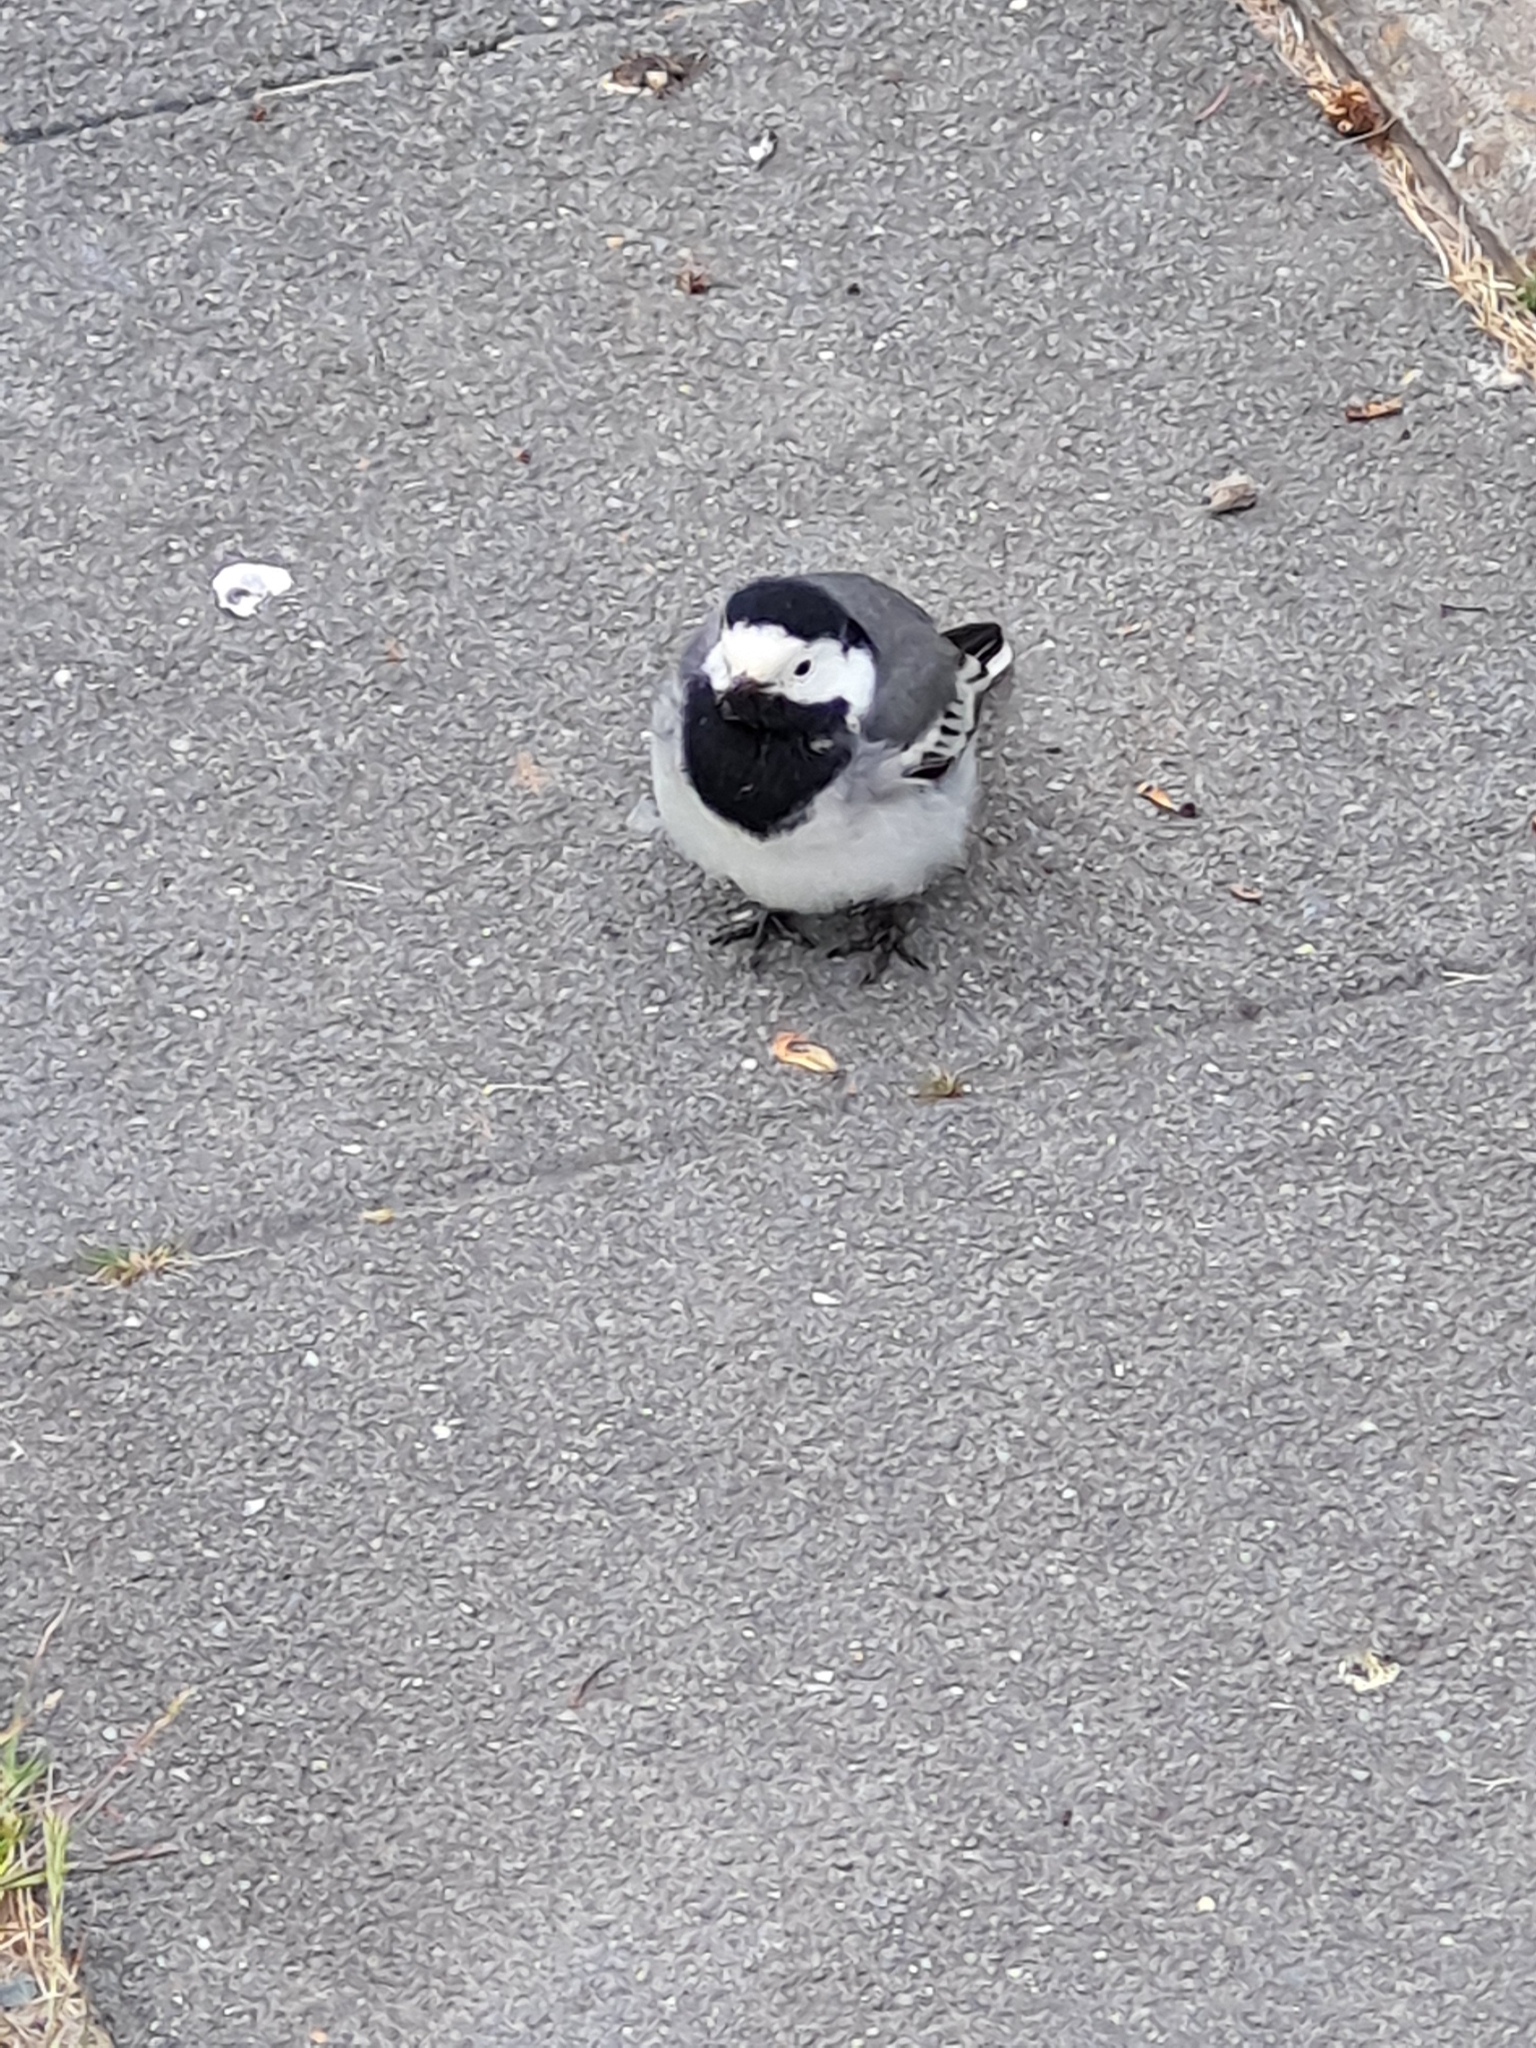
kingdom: Animalia
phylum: Chordata
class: Aves
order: Passeriformes
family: Motacillidae
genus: Motacilla
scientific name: Motacilla alba
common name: White wagtail
